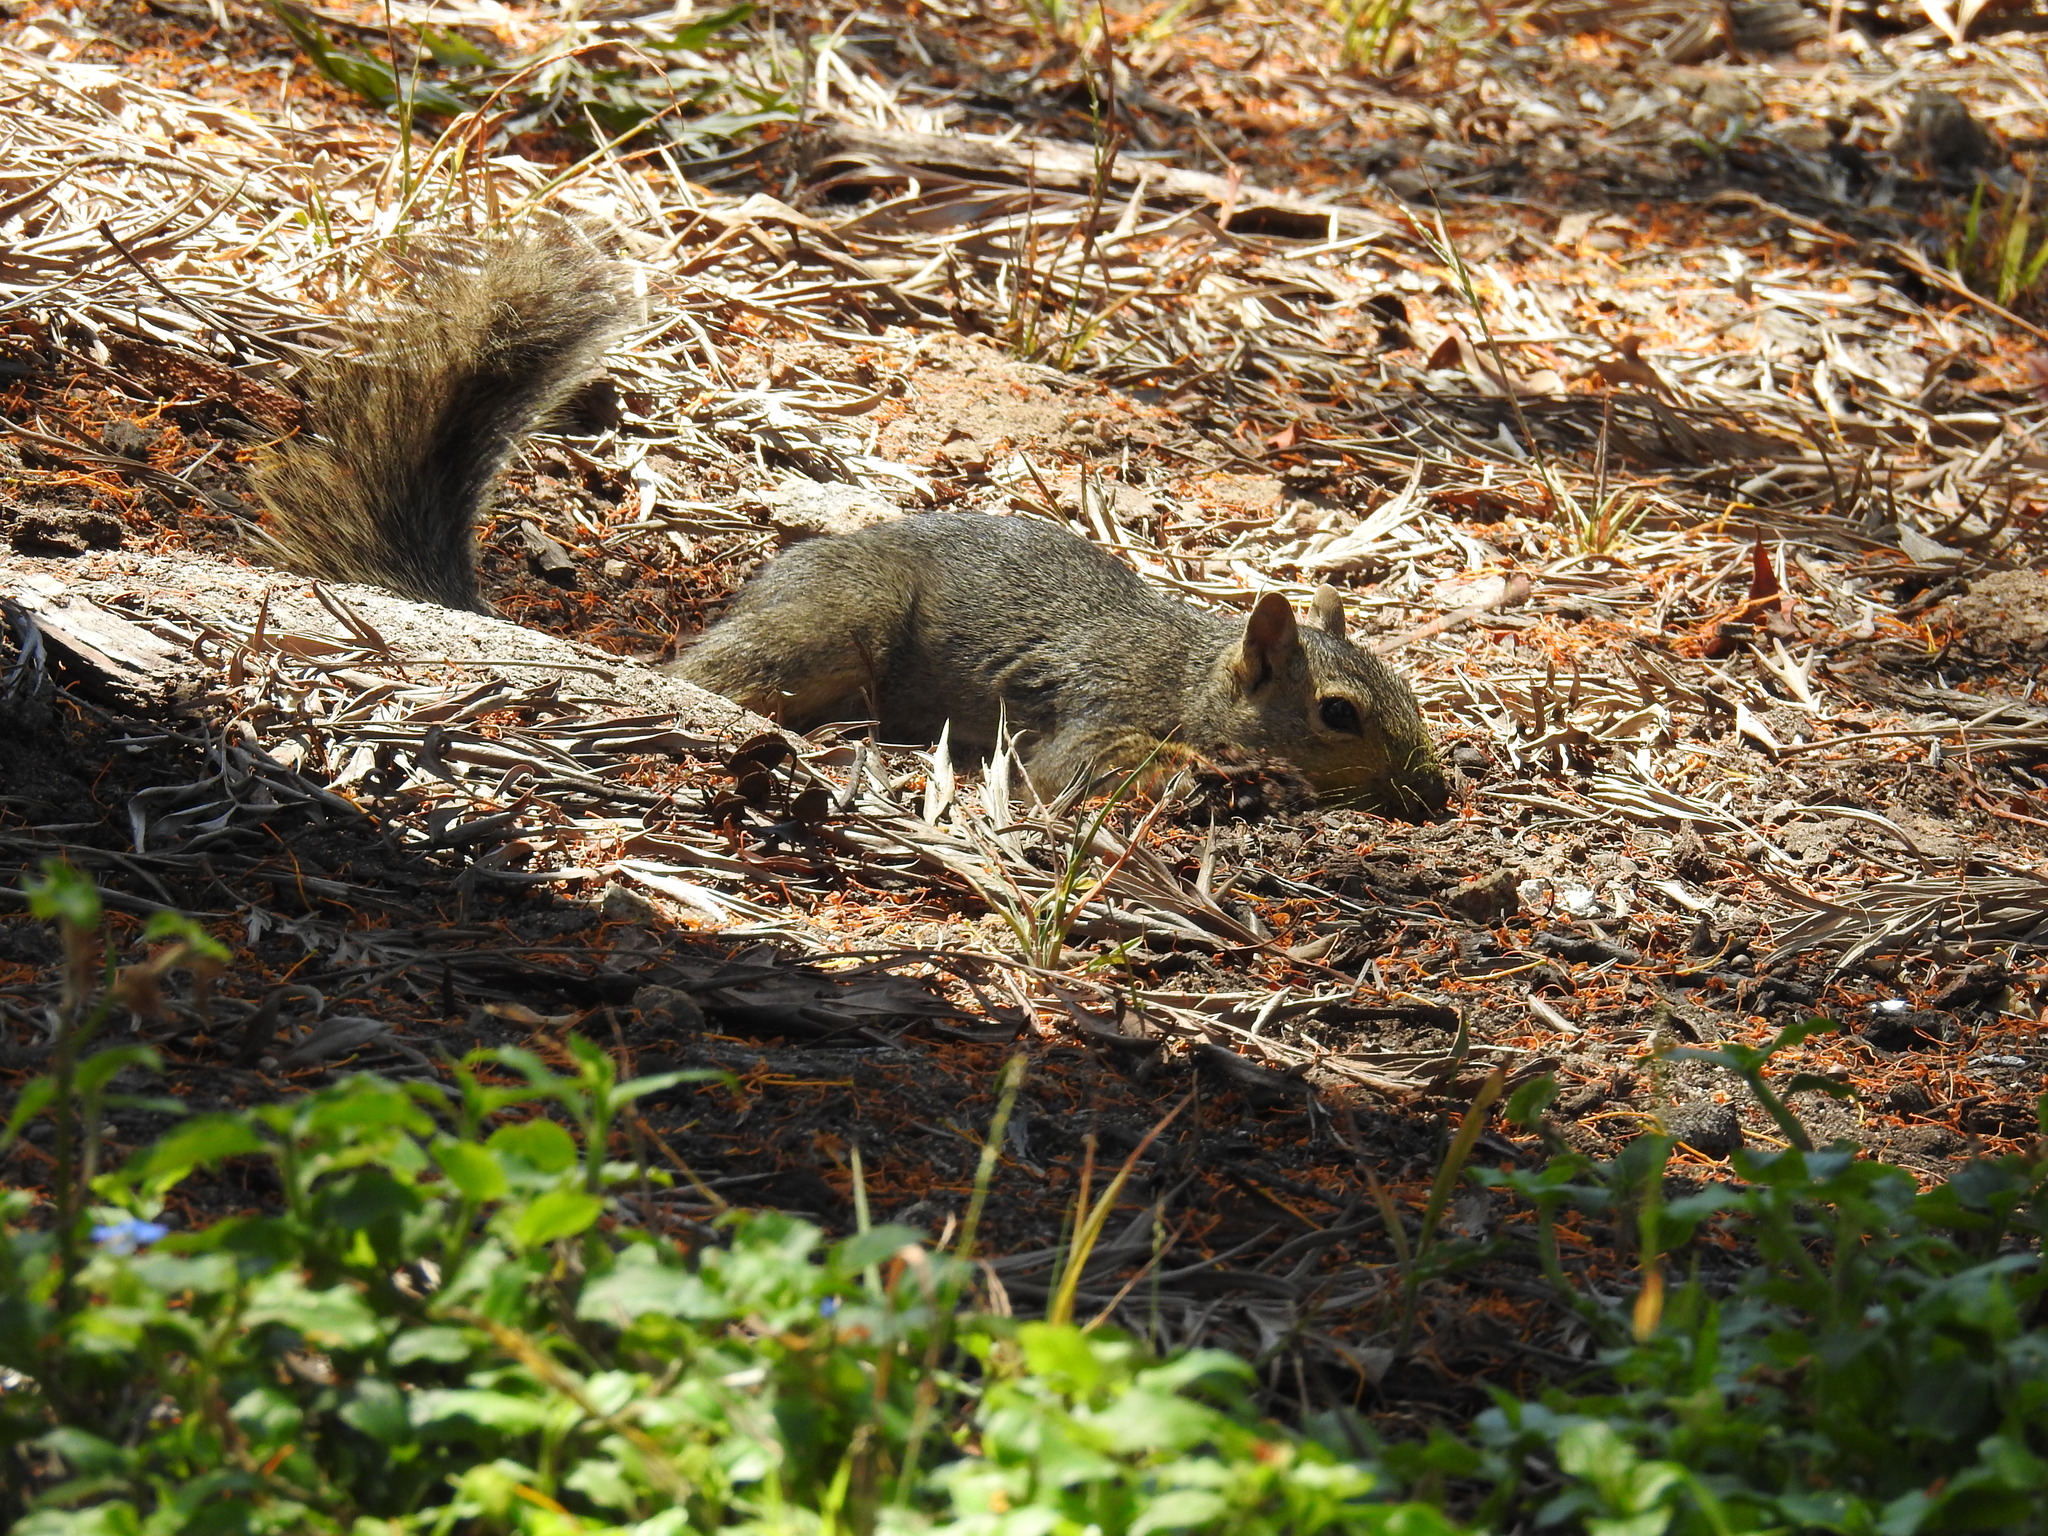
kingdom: Animalia
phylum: Chordata
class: Mammalia
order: Rodentia
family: Sciuridae
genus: Sciurus
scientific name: Sciurus niger
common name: Fox squirrel
